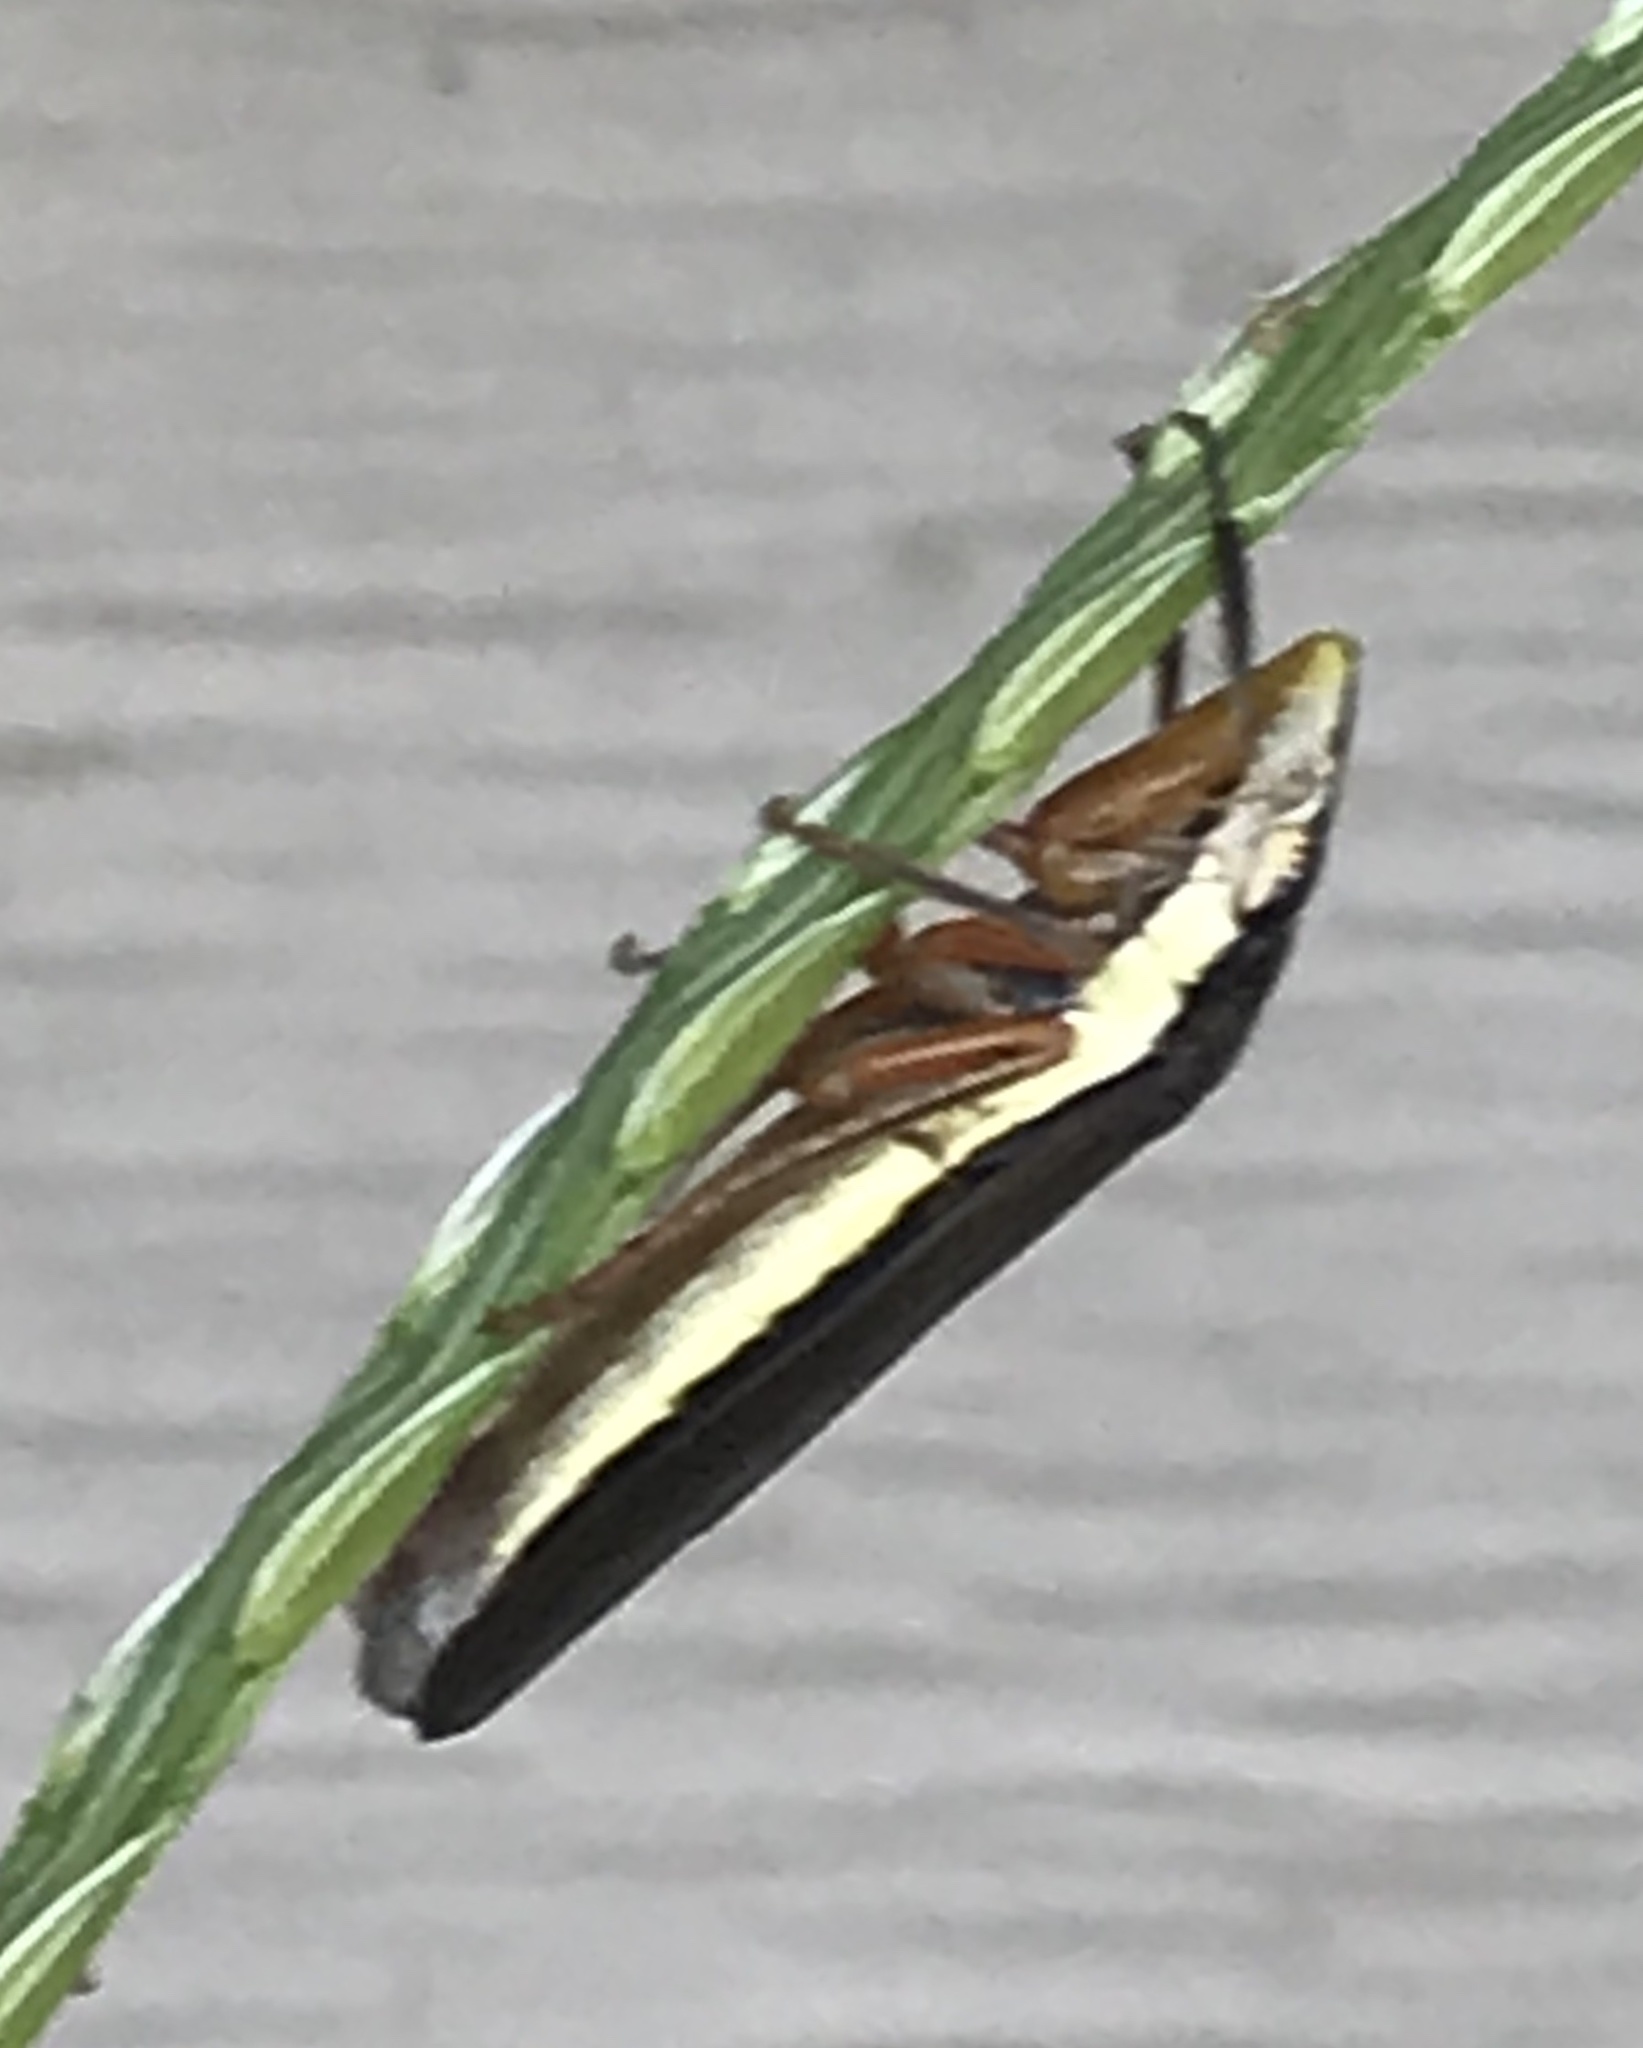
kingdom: Animalia
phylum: Arthropoda
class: Insecta
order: Hemiptera
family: Cicadellidae
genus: Homalodisca
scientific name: Homalodisca insolita
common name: Johnson grass sharpshooter
